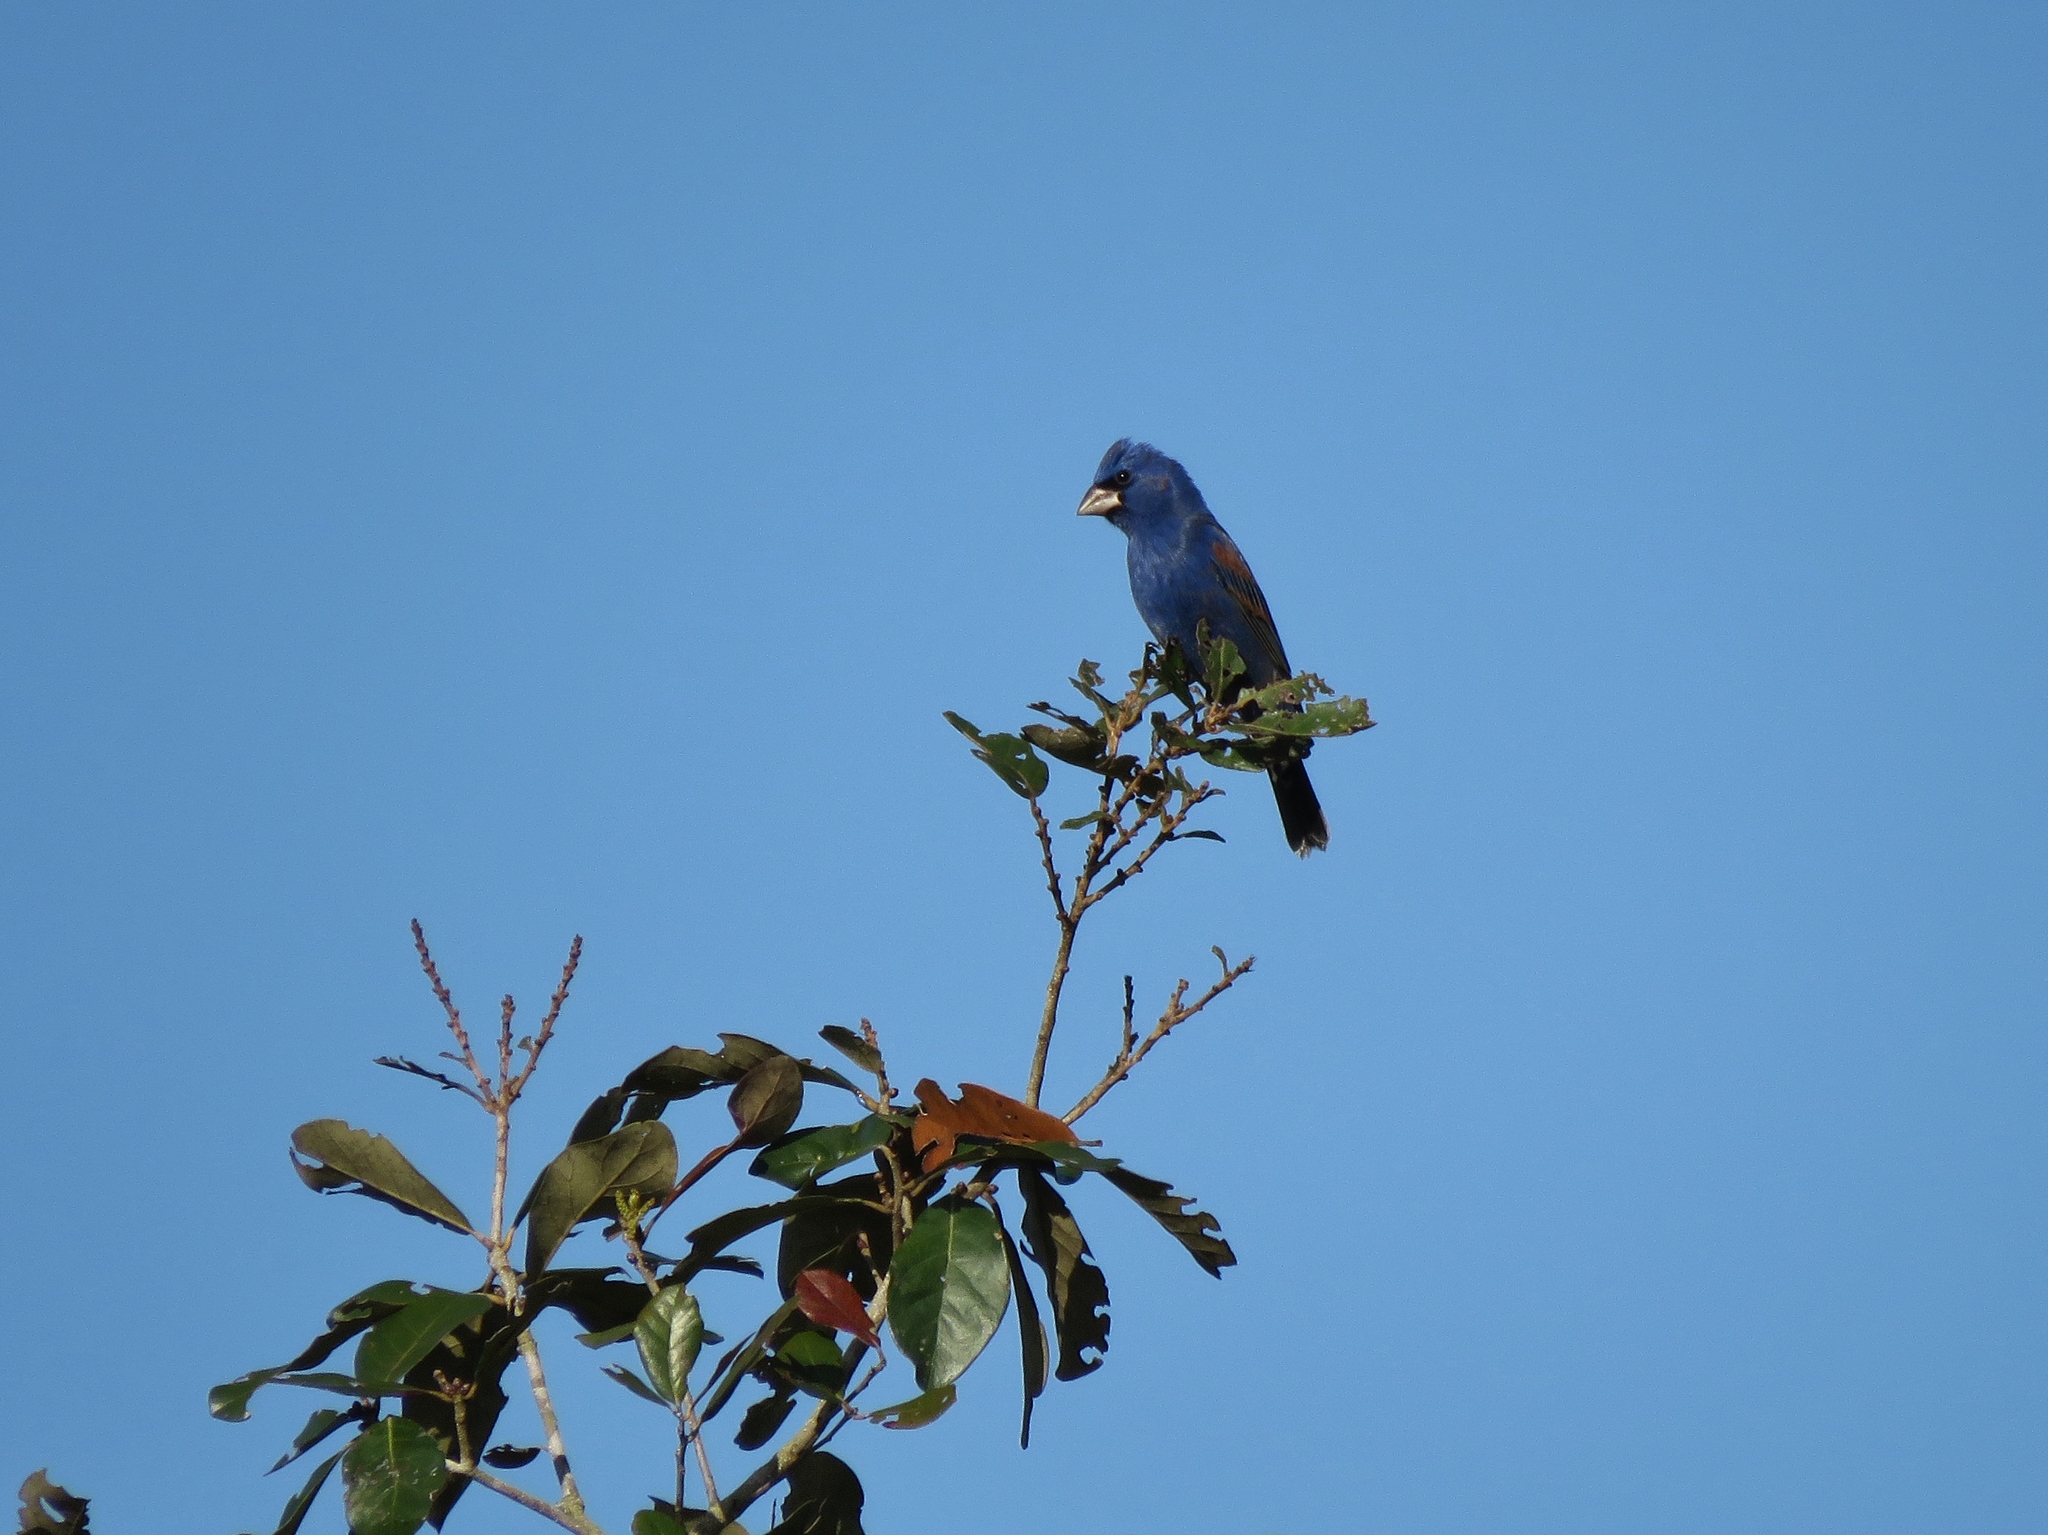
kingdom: Animalia
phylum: Chordata
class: Aves
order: Passeriformes
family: Cardinalidae
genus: Passerina
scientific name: Passerina caerulea
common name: Blue grosbeak
